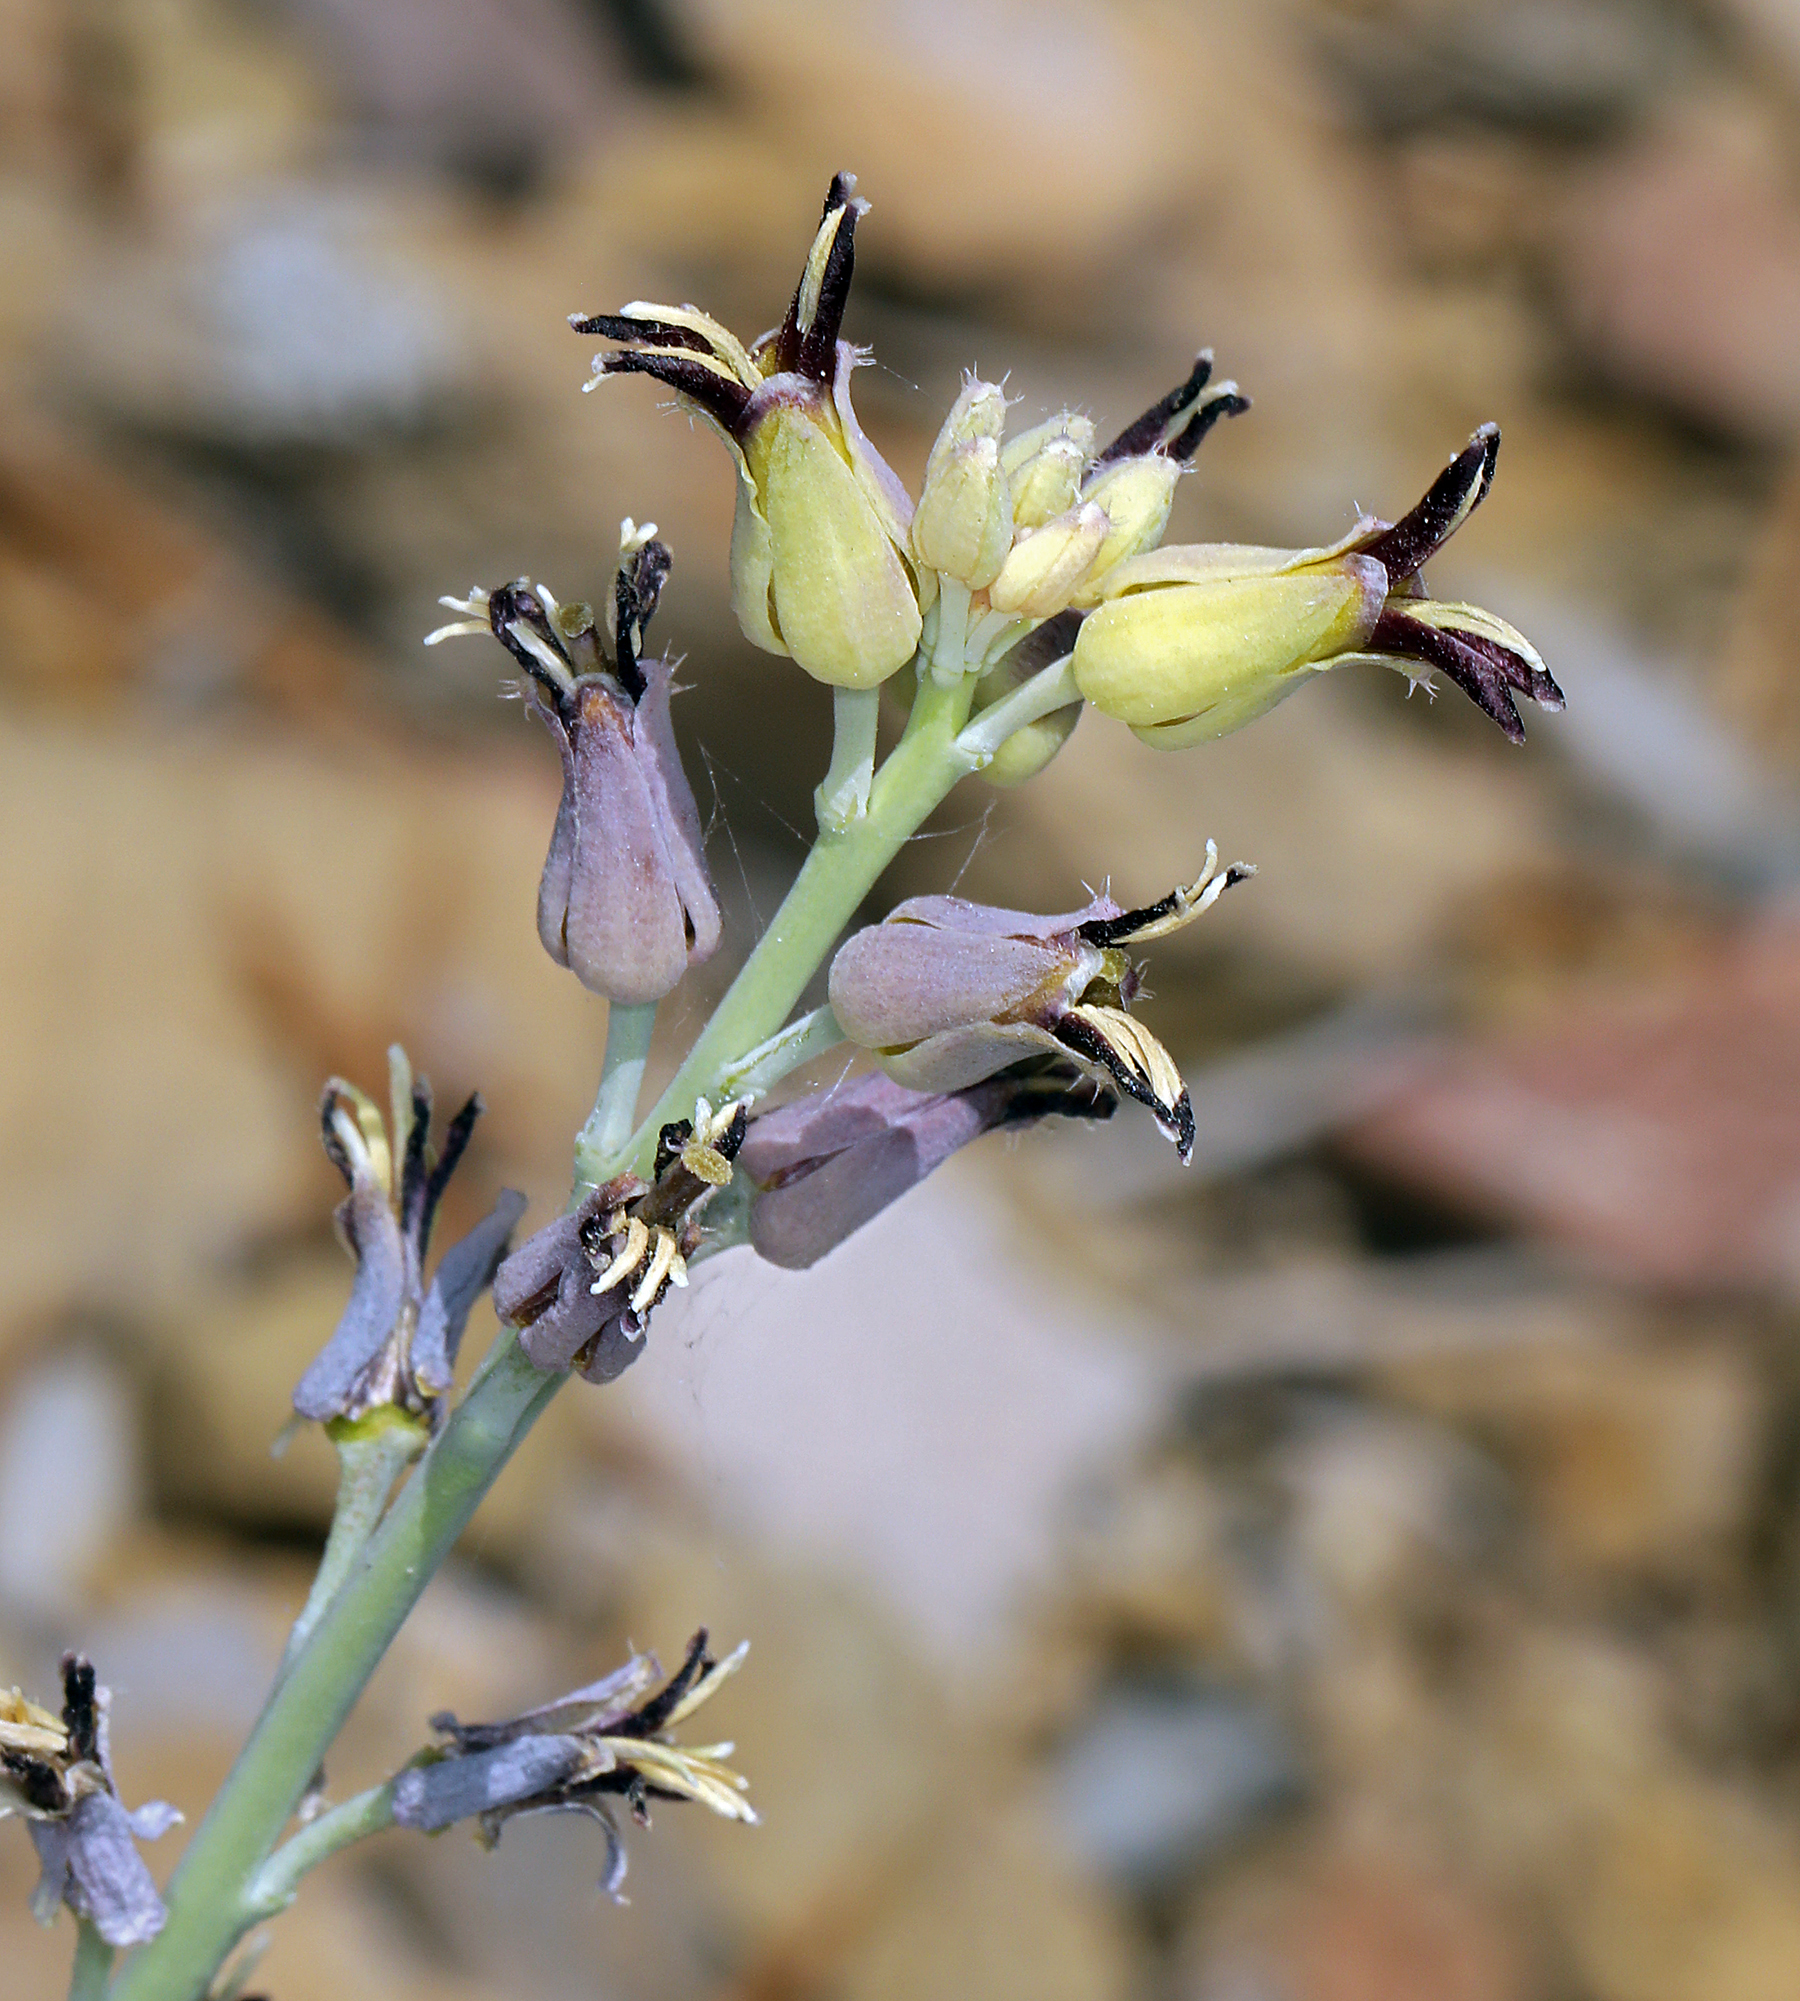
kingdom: Plantae
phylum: Tracheophyta
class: Magnoliopsida
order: Brassicales
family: Brassicaceae
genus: Streptanthus
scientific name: Streptanthus cordatus
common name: Heart-leaf jewel-flower
